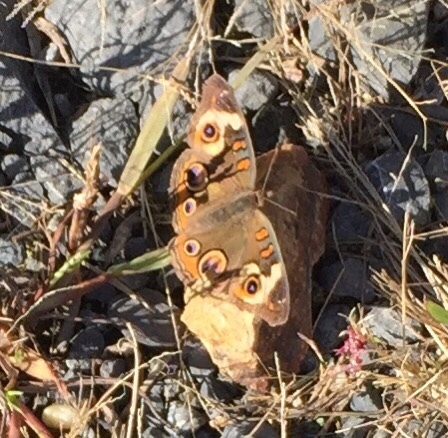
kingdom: Animalia
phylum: Arthropoda
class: Insecta
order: Lepidoptera
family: Nymphalidae
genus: Junonia
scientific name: Junonia coenia
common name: Common buckeye
